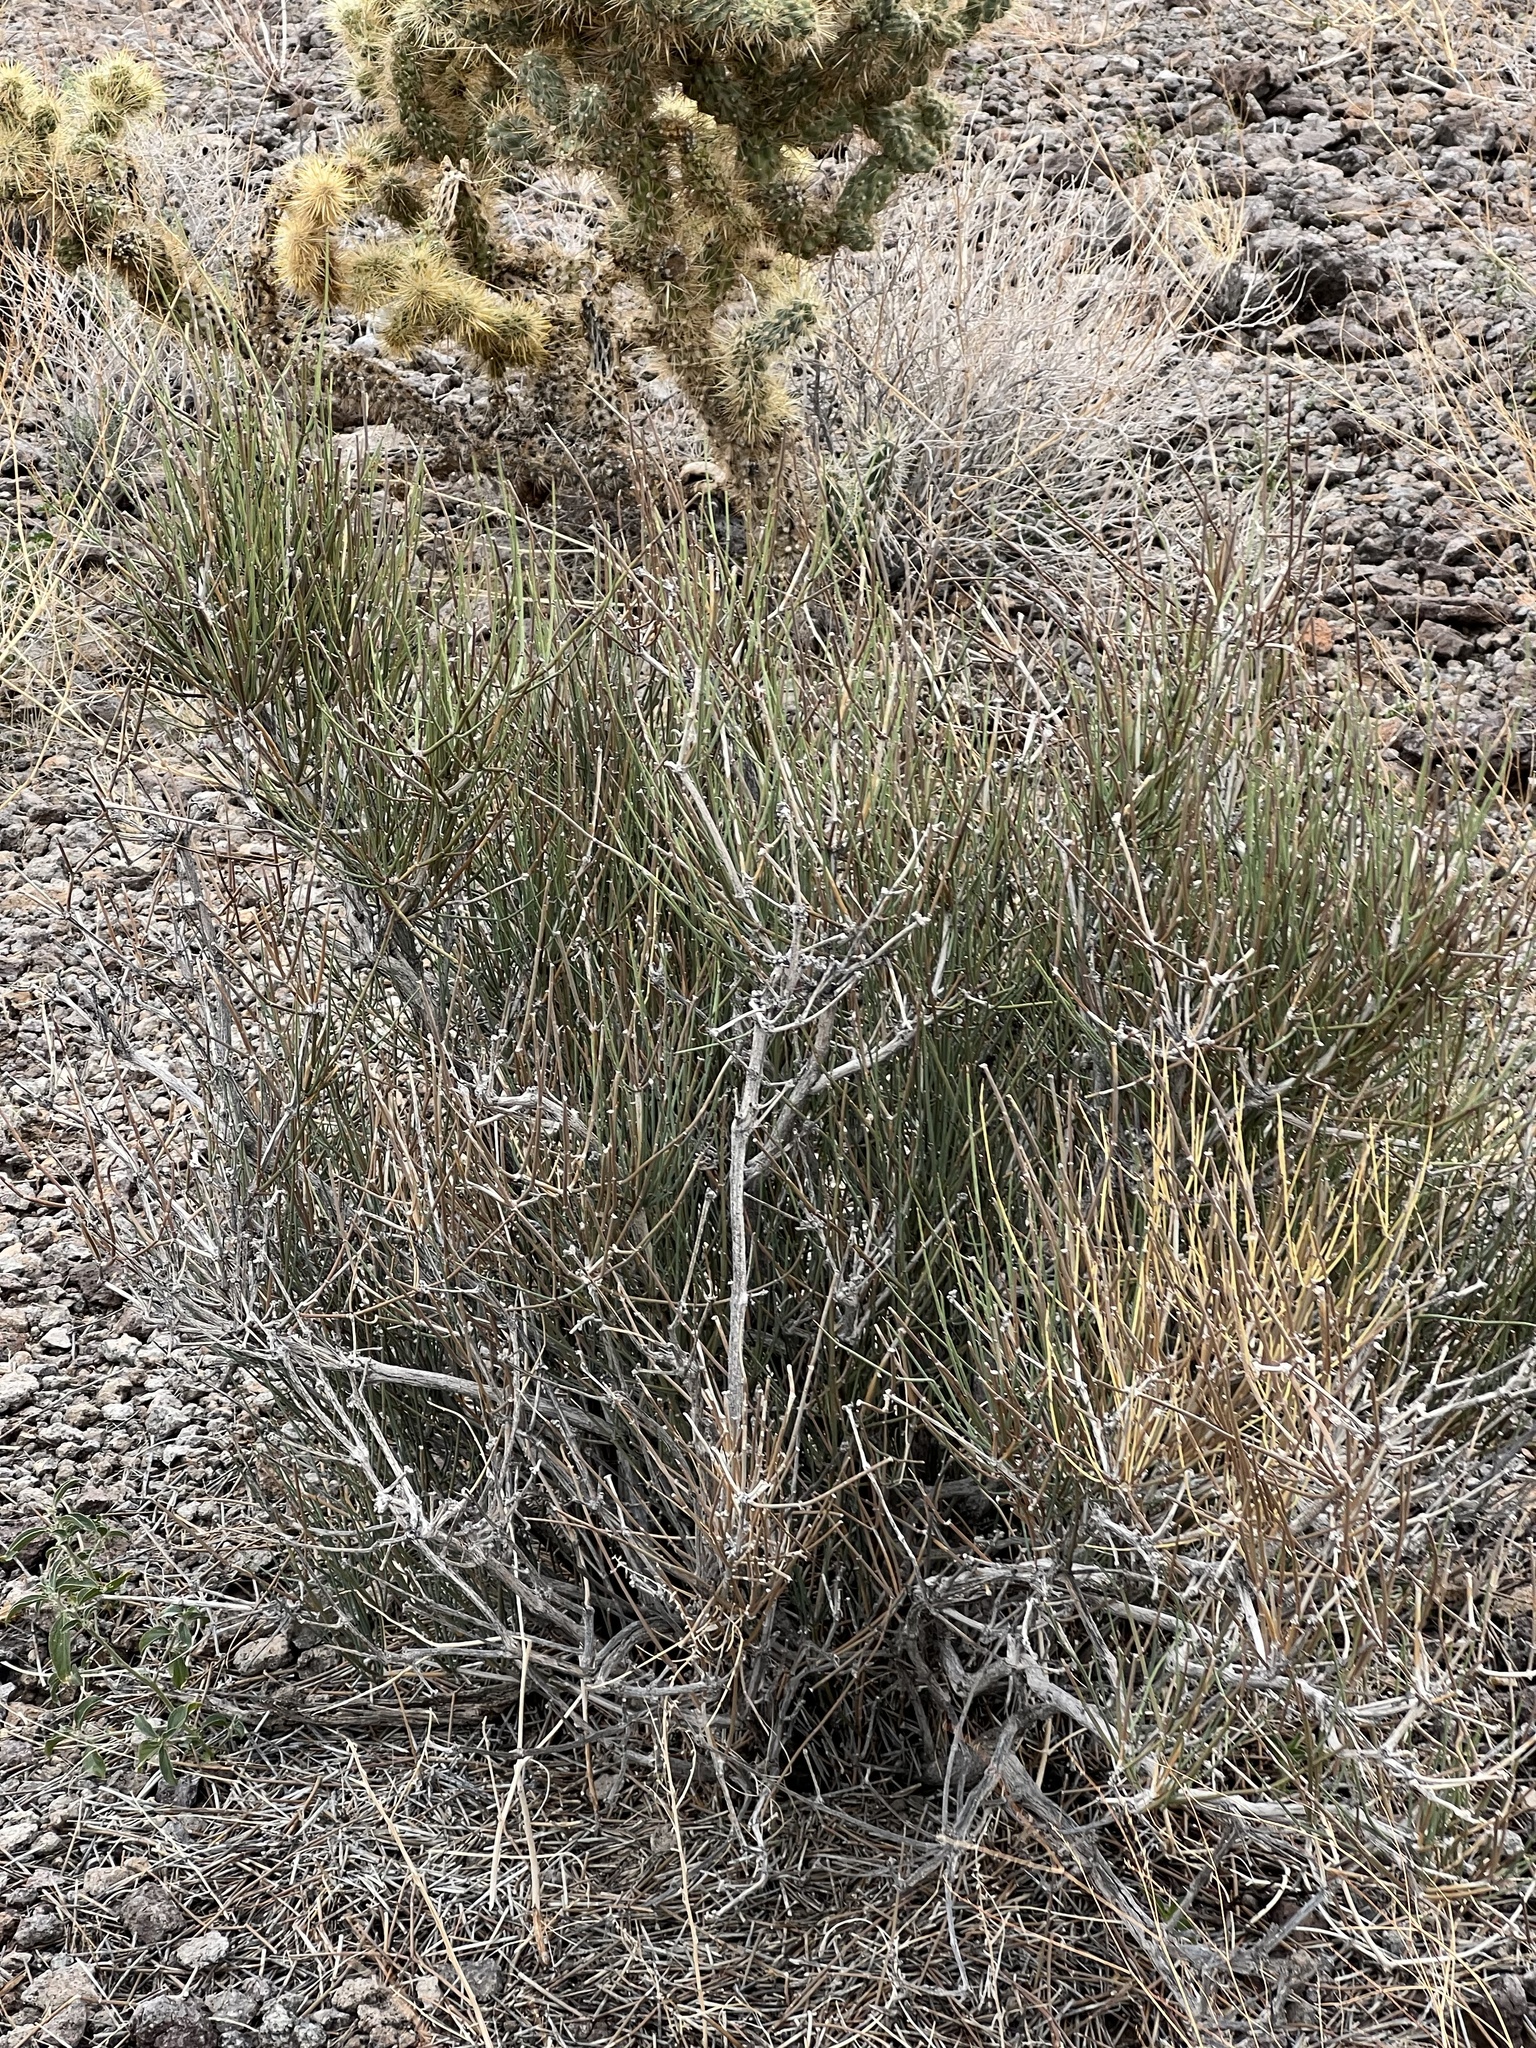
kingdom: Plantae
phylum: Tracheophyta
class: Gnetopsida
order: Ephedrales
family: Ephedraceae
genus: Ephedra
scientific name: Ephedra viridis
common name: Green ephedra
